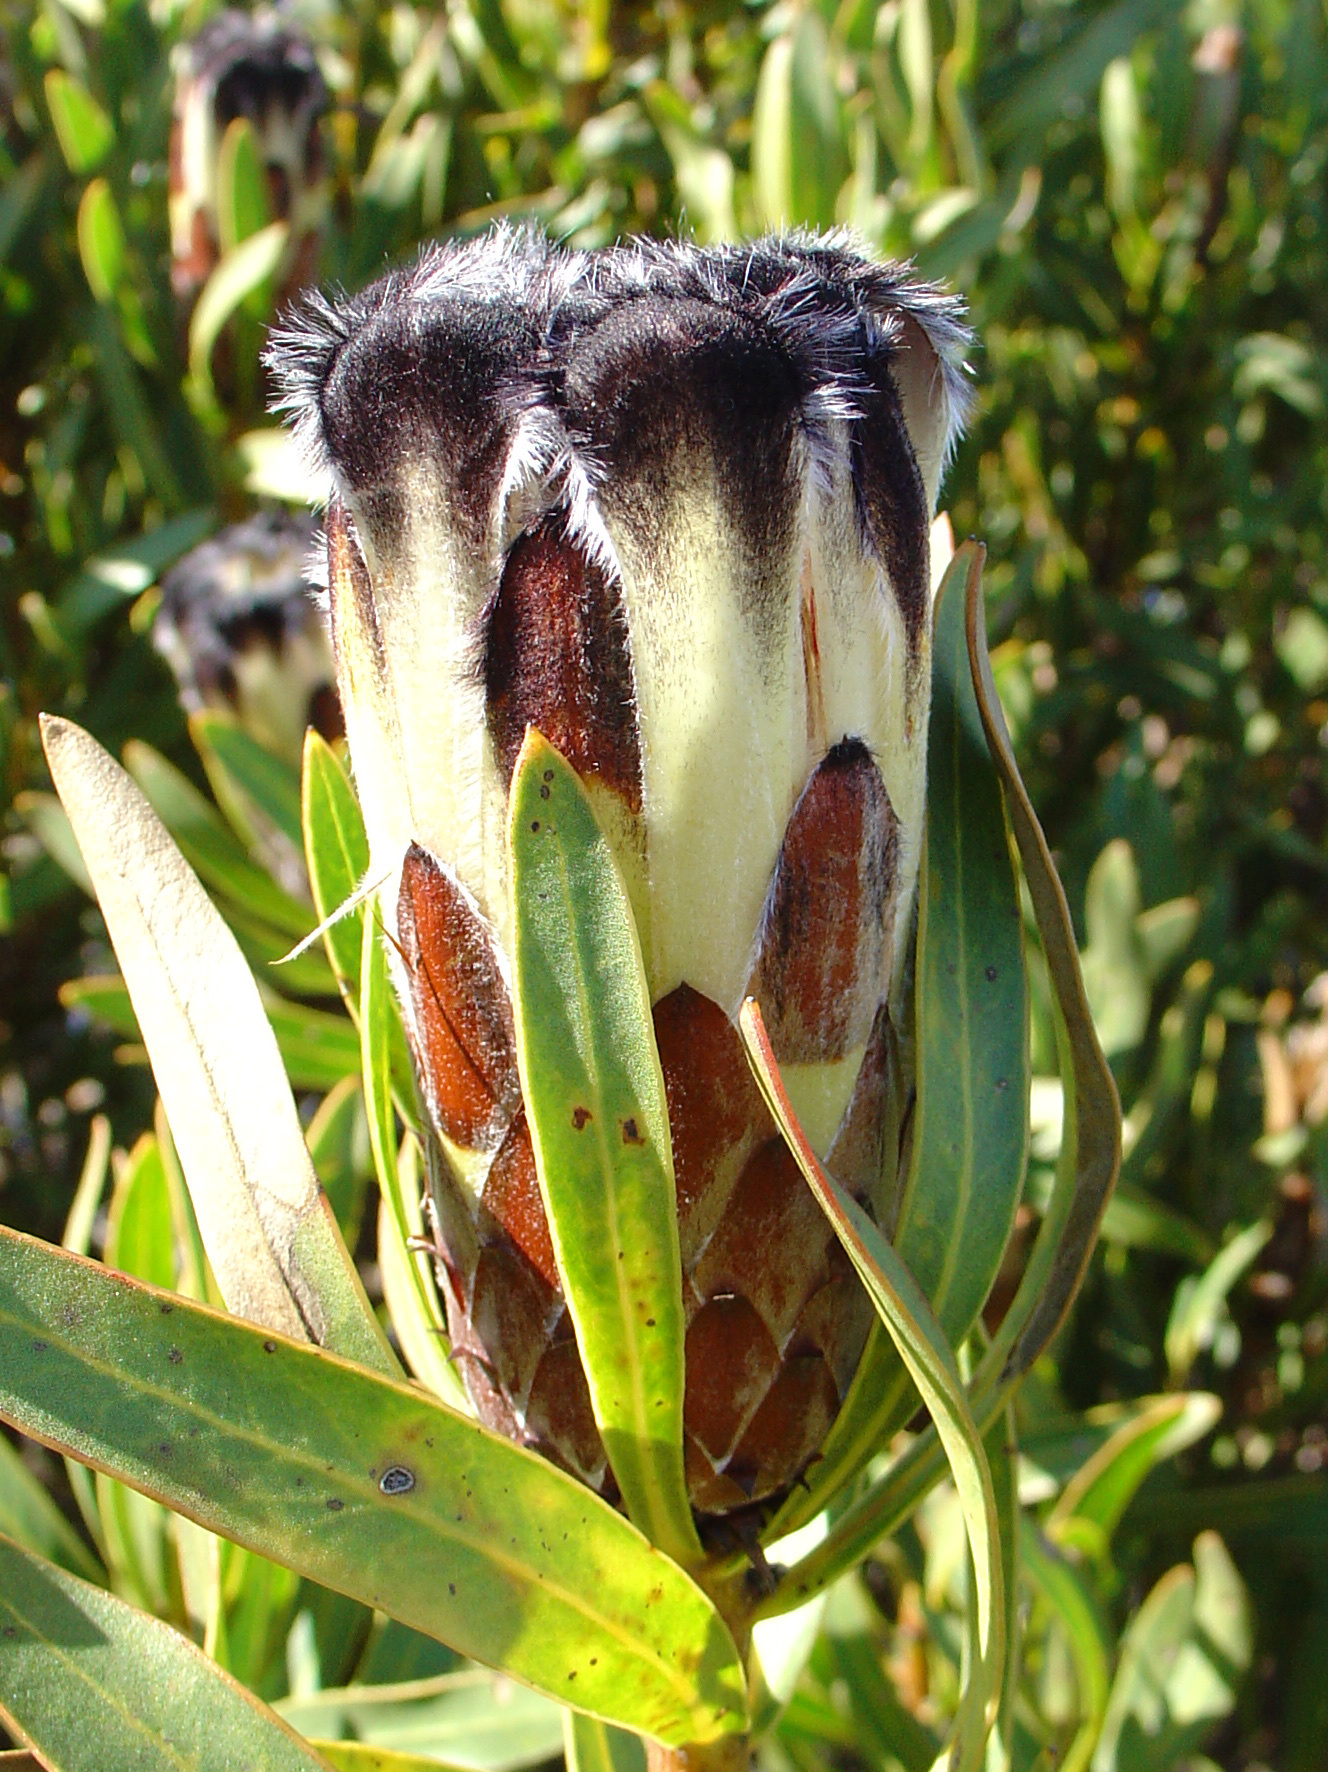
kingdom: Plantae
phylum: Tracheophyta
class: Magnoliopsida
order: Proteales
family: Proteaceae
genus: Protea
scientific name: Protea lepidocarpodendron
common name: Black-bearded protea
